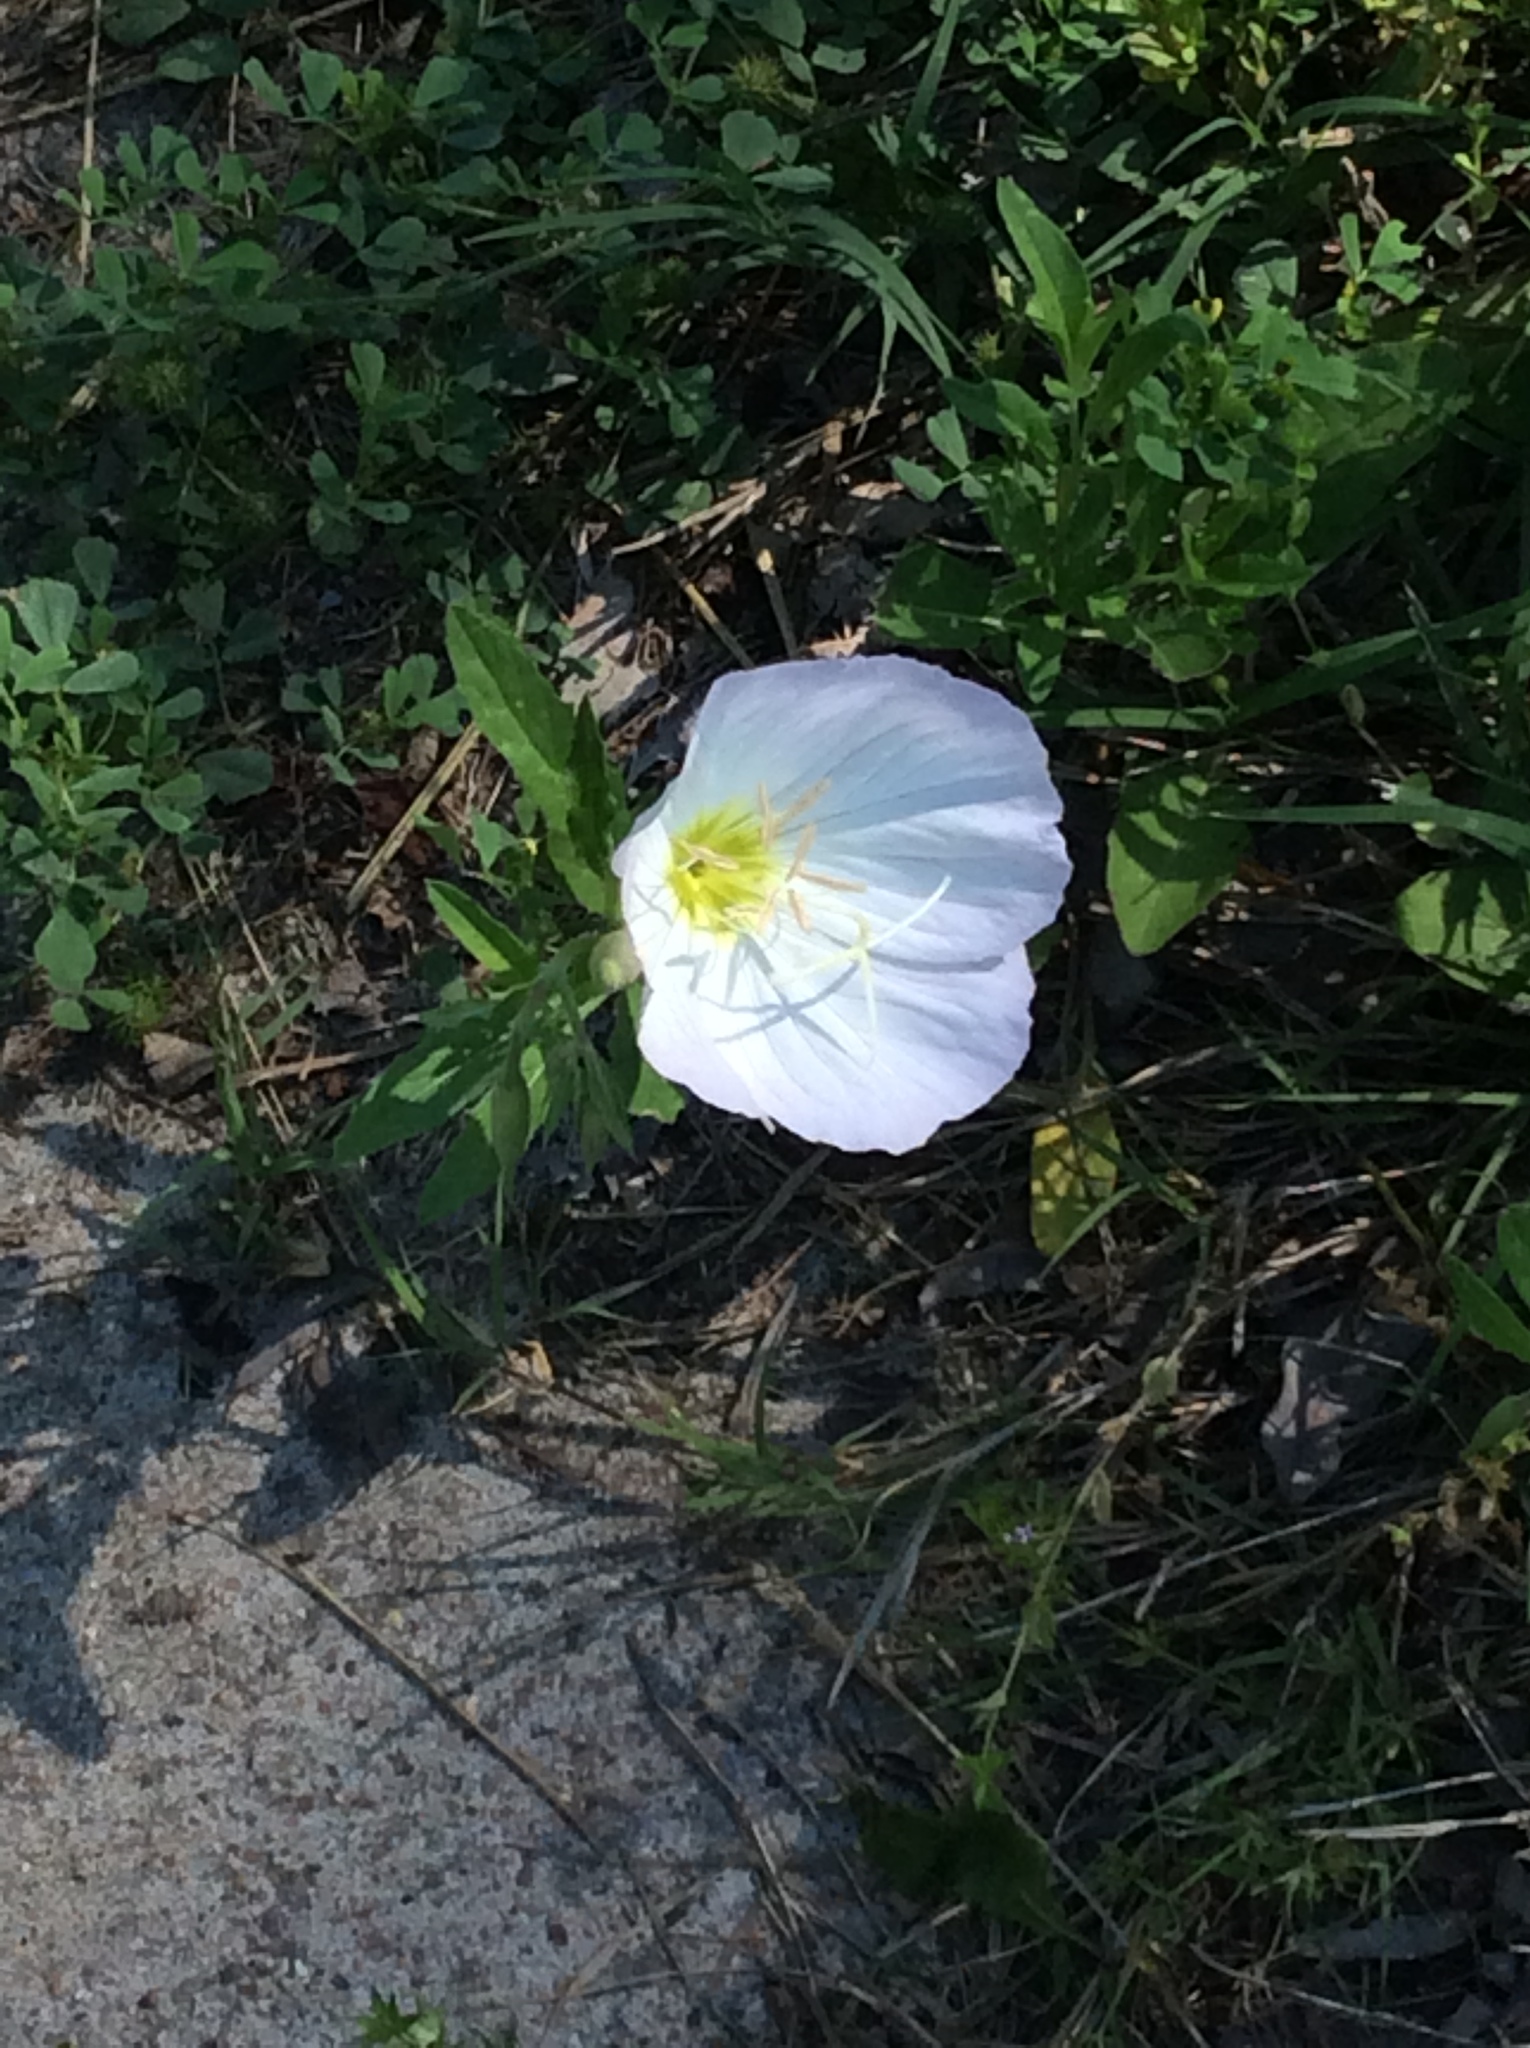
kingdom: Plantae
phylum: Tracheophyta
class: Magnoliopsida
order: Myrtales
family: Onagraceae
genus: Oenothera
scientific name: Oenothera speciosa
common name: White evening-primrose
